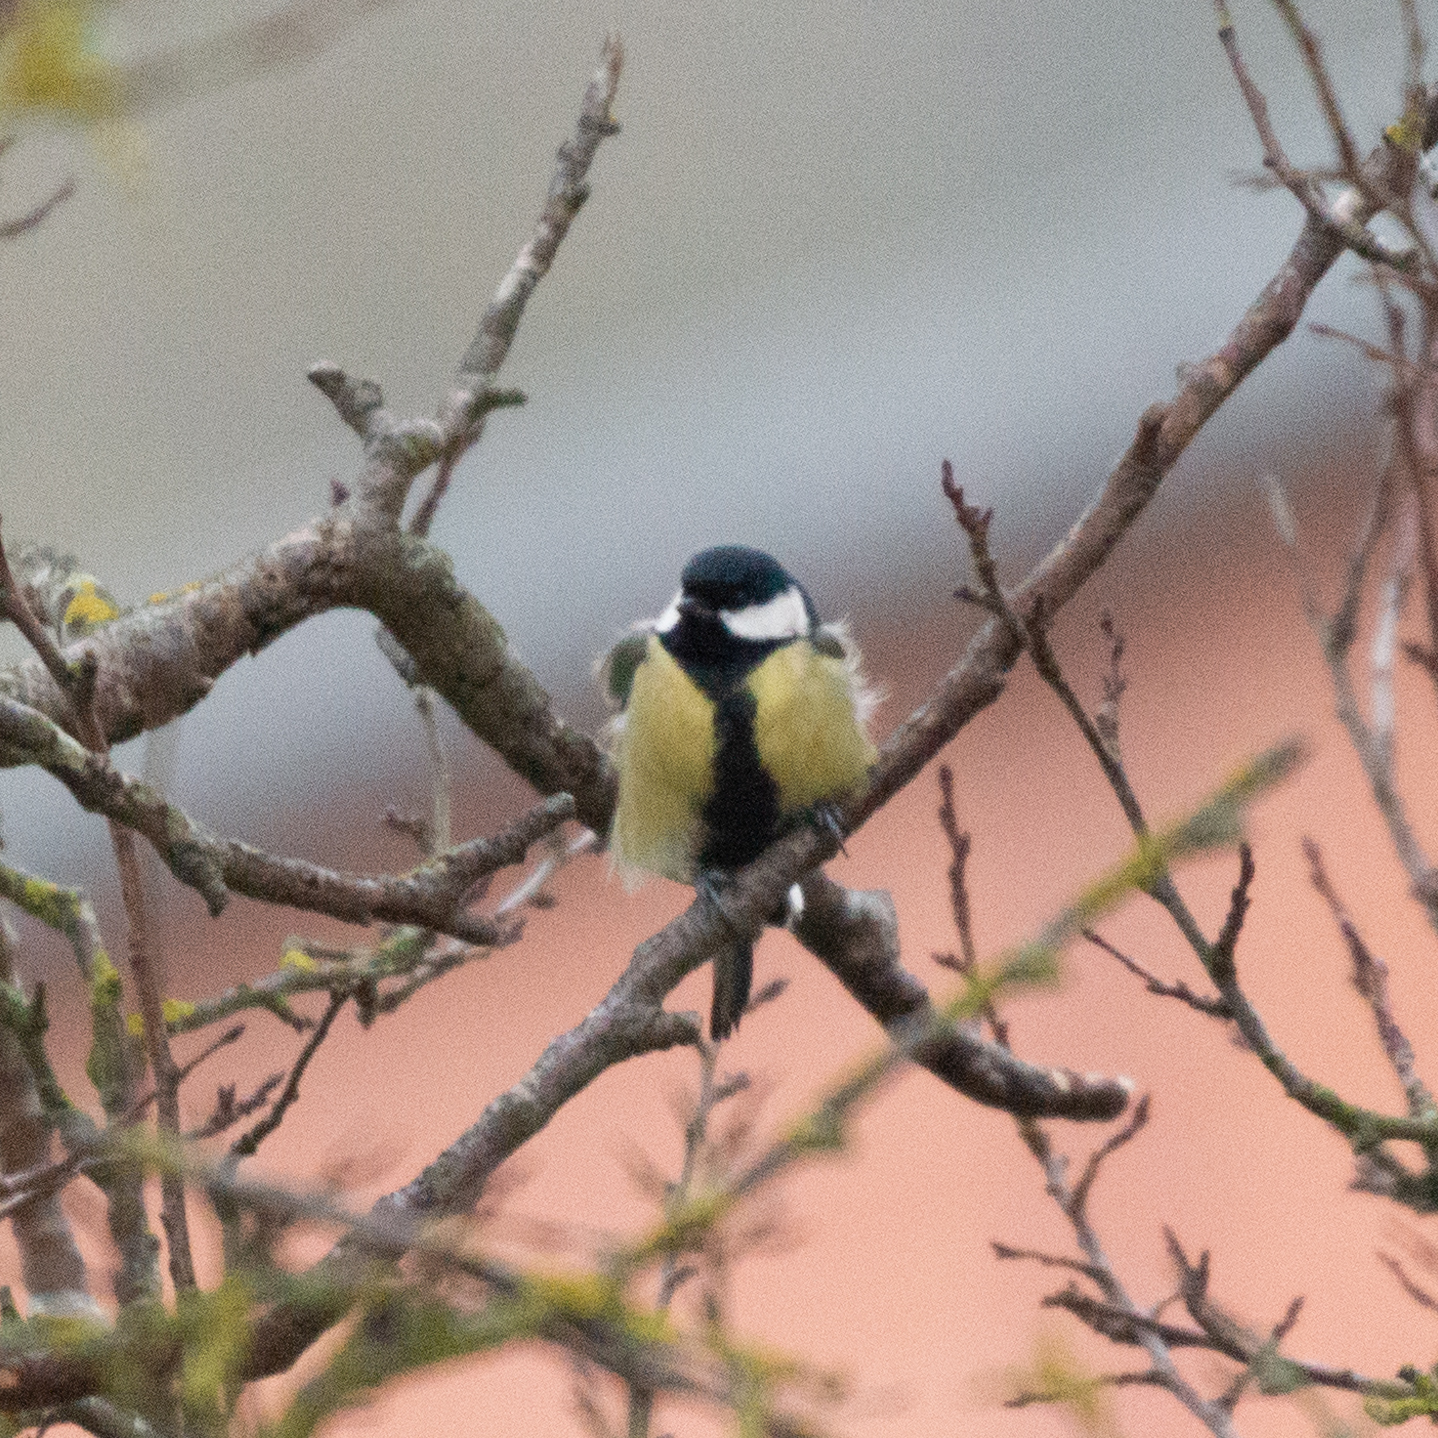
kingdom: Animalia
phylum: Chordata
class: Aves
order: Passeriformes
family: Paridae
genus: Parus
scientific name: Parus major
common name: Great tit
